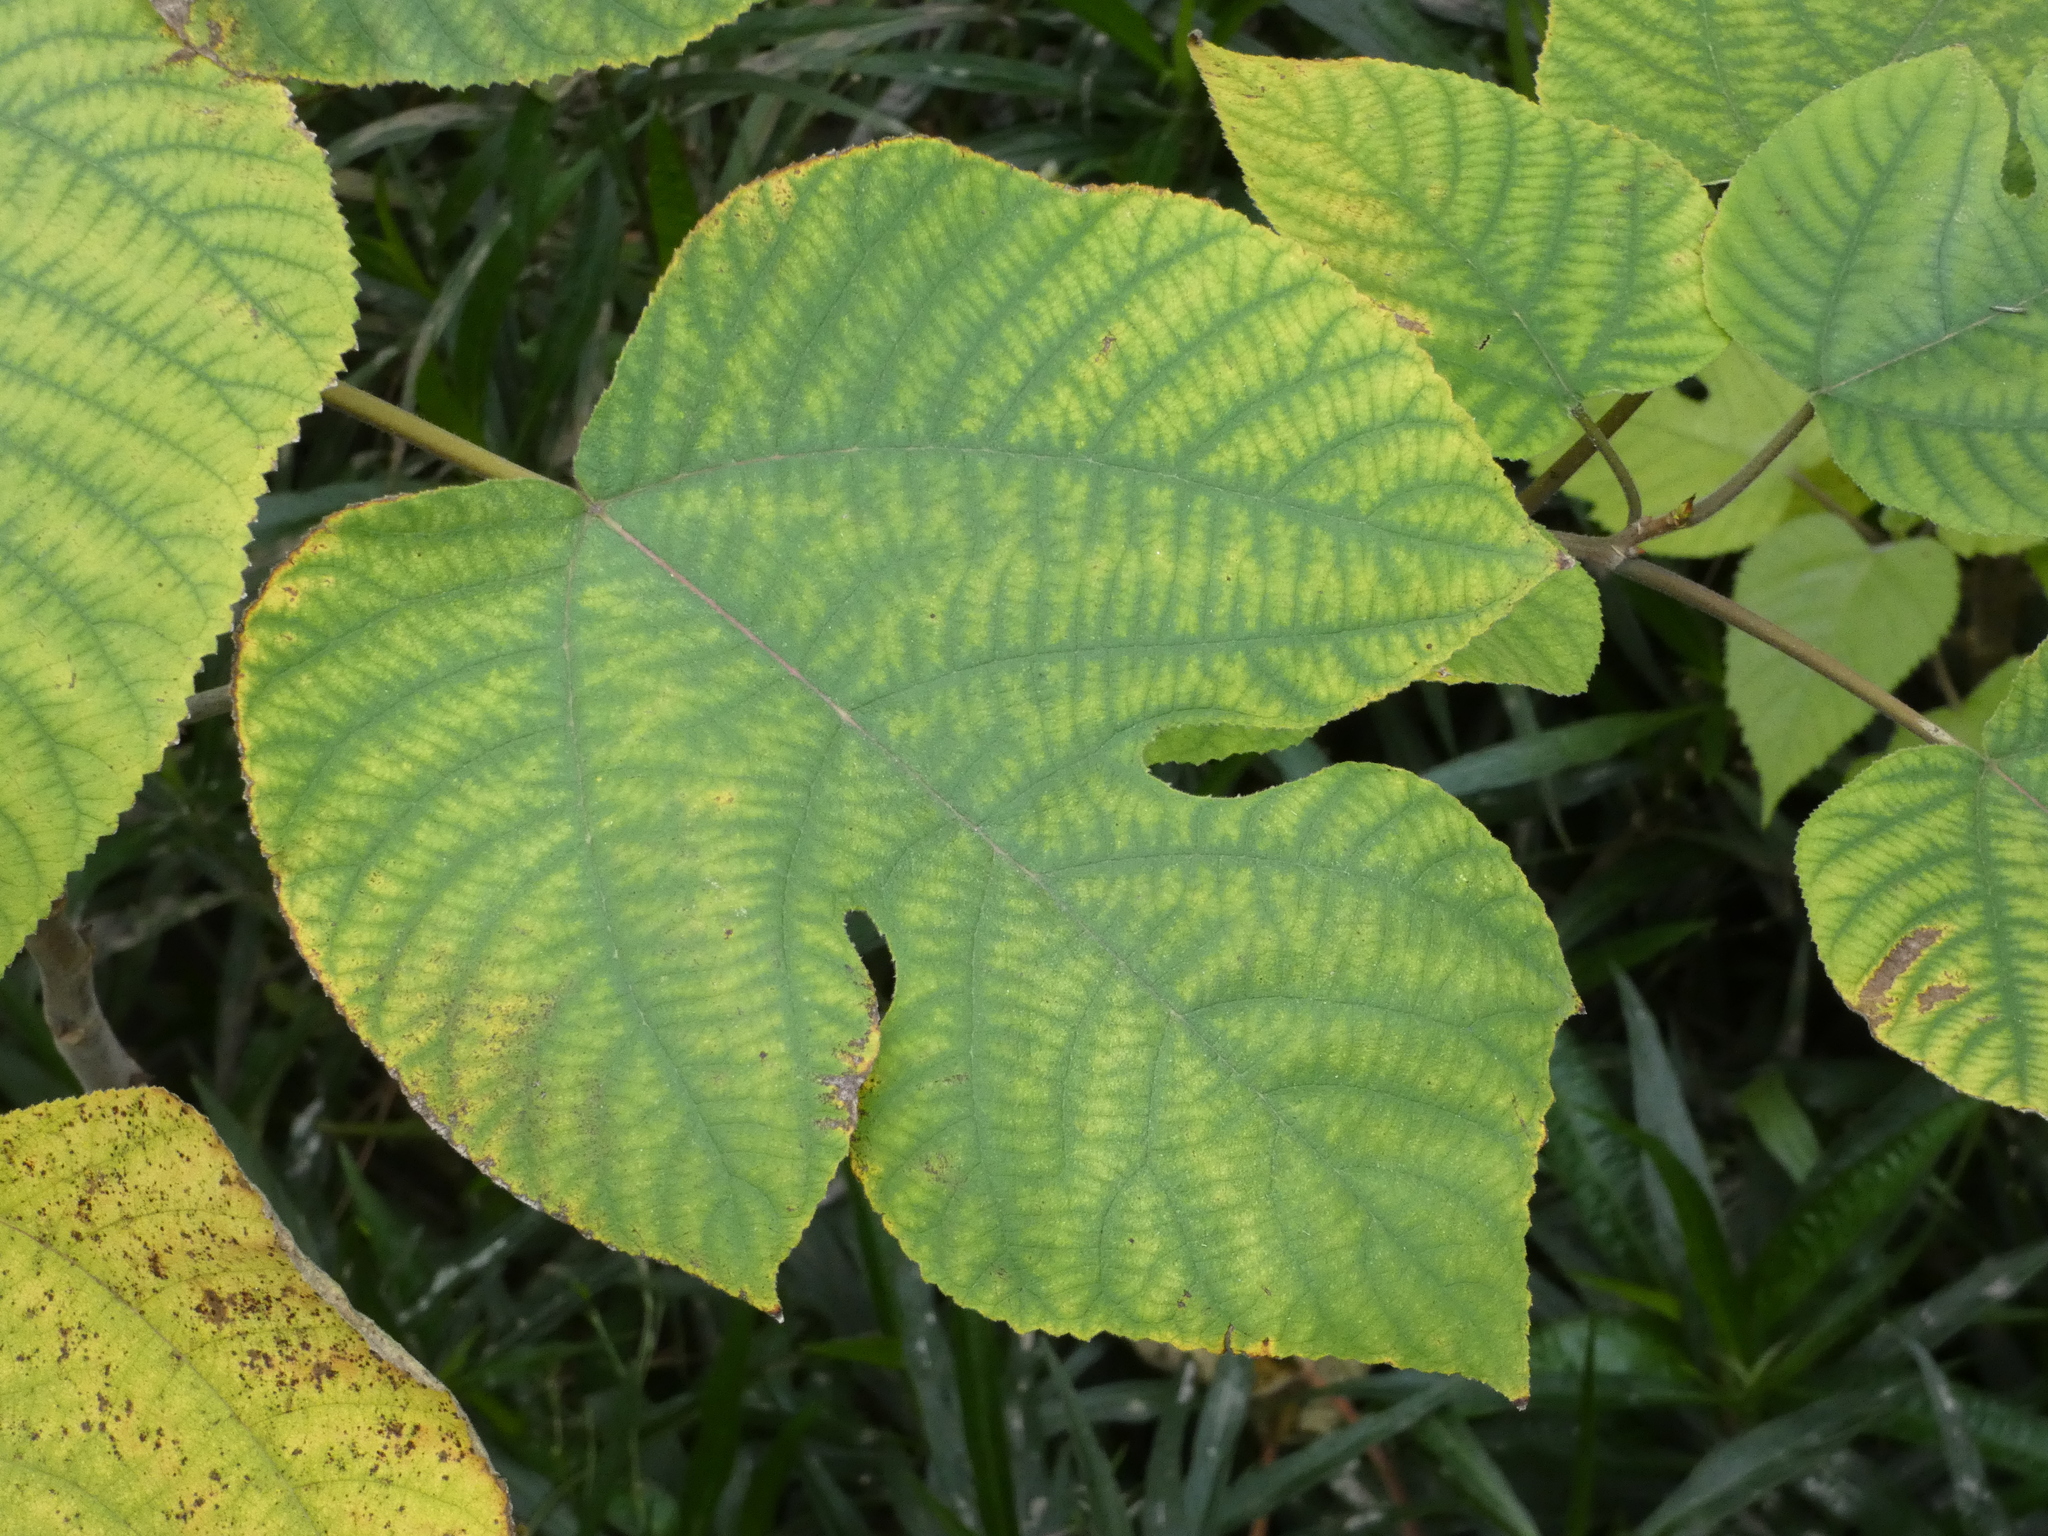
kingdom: Plantae
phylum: Tracheophyta
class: Magnoliopsida
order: Rosales
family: Moraceae
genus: Broussonetia
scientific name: Broussonetia papyrifera
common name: Paper mulberry
